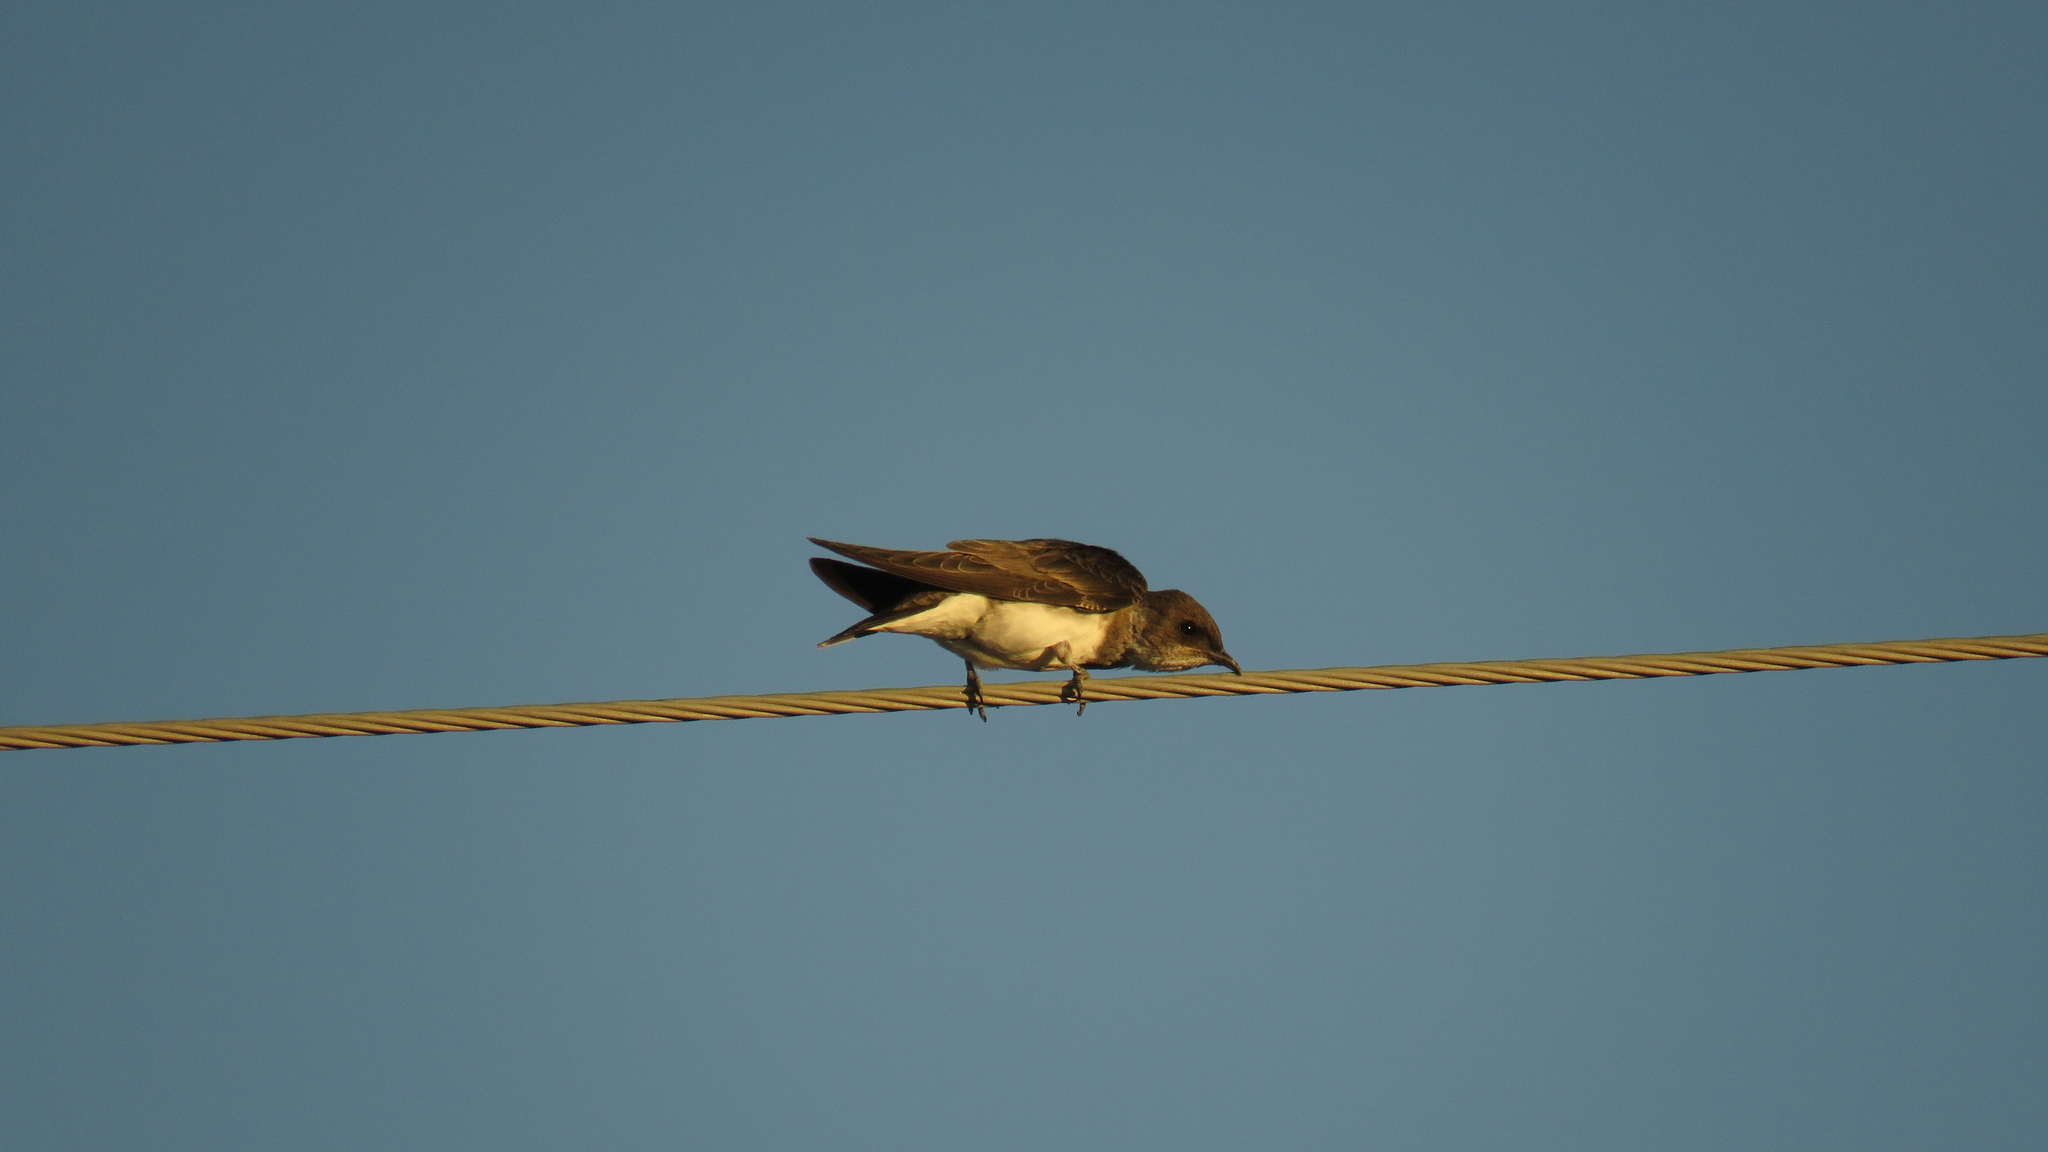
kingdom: Animalia
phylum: Chordata
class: Aves
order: Passeriformes
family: Hirundinidae
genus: Progne
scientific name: Progne tapera
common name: Brown-chested martin
